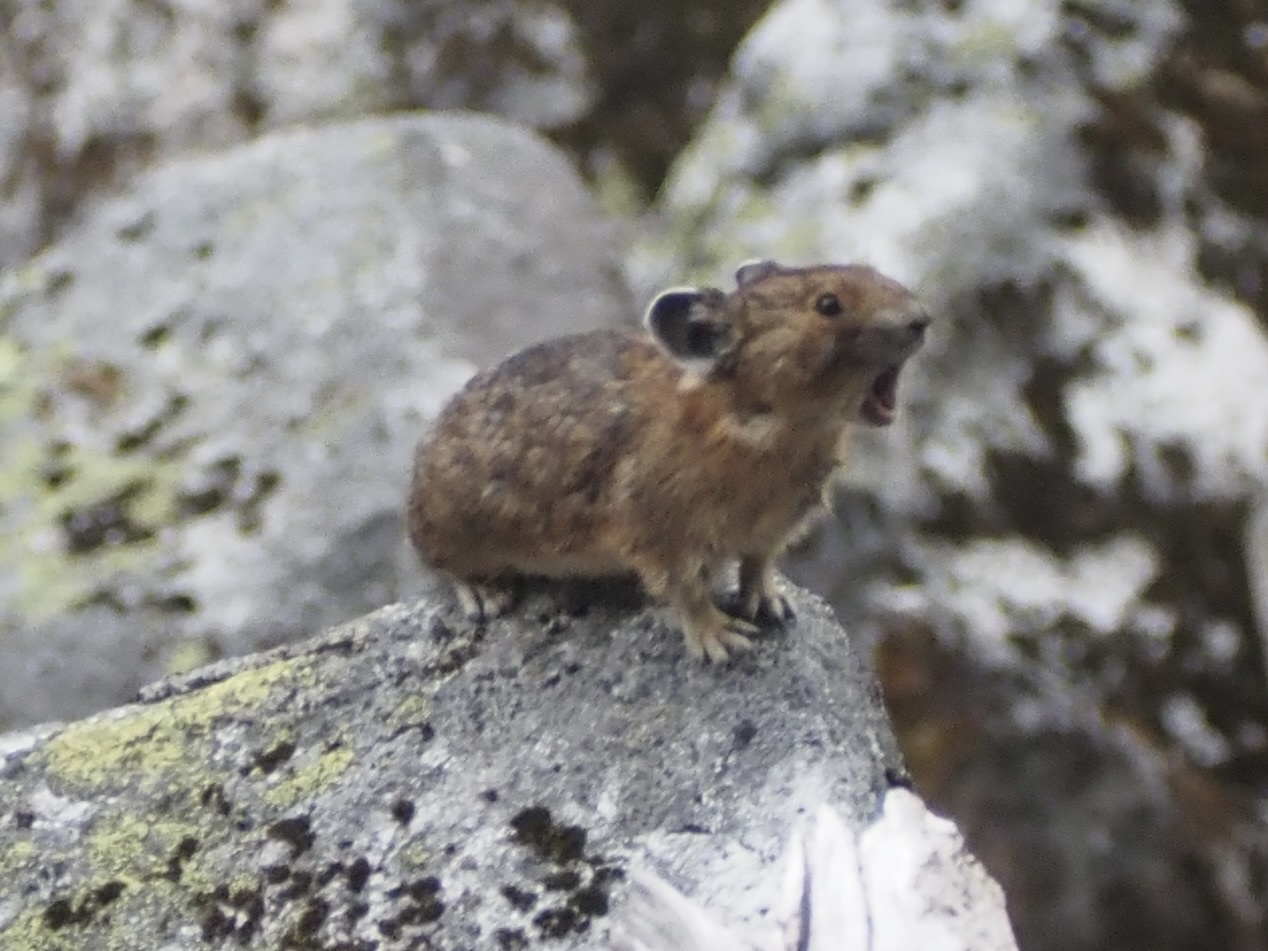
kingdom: Animalia
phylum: Chordata
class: Mammalia
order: Lagomorpha
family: Ochotonidae
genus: Ochotona
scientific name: Ochotona princeps
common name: American pika
